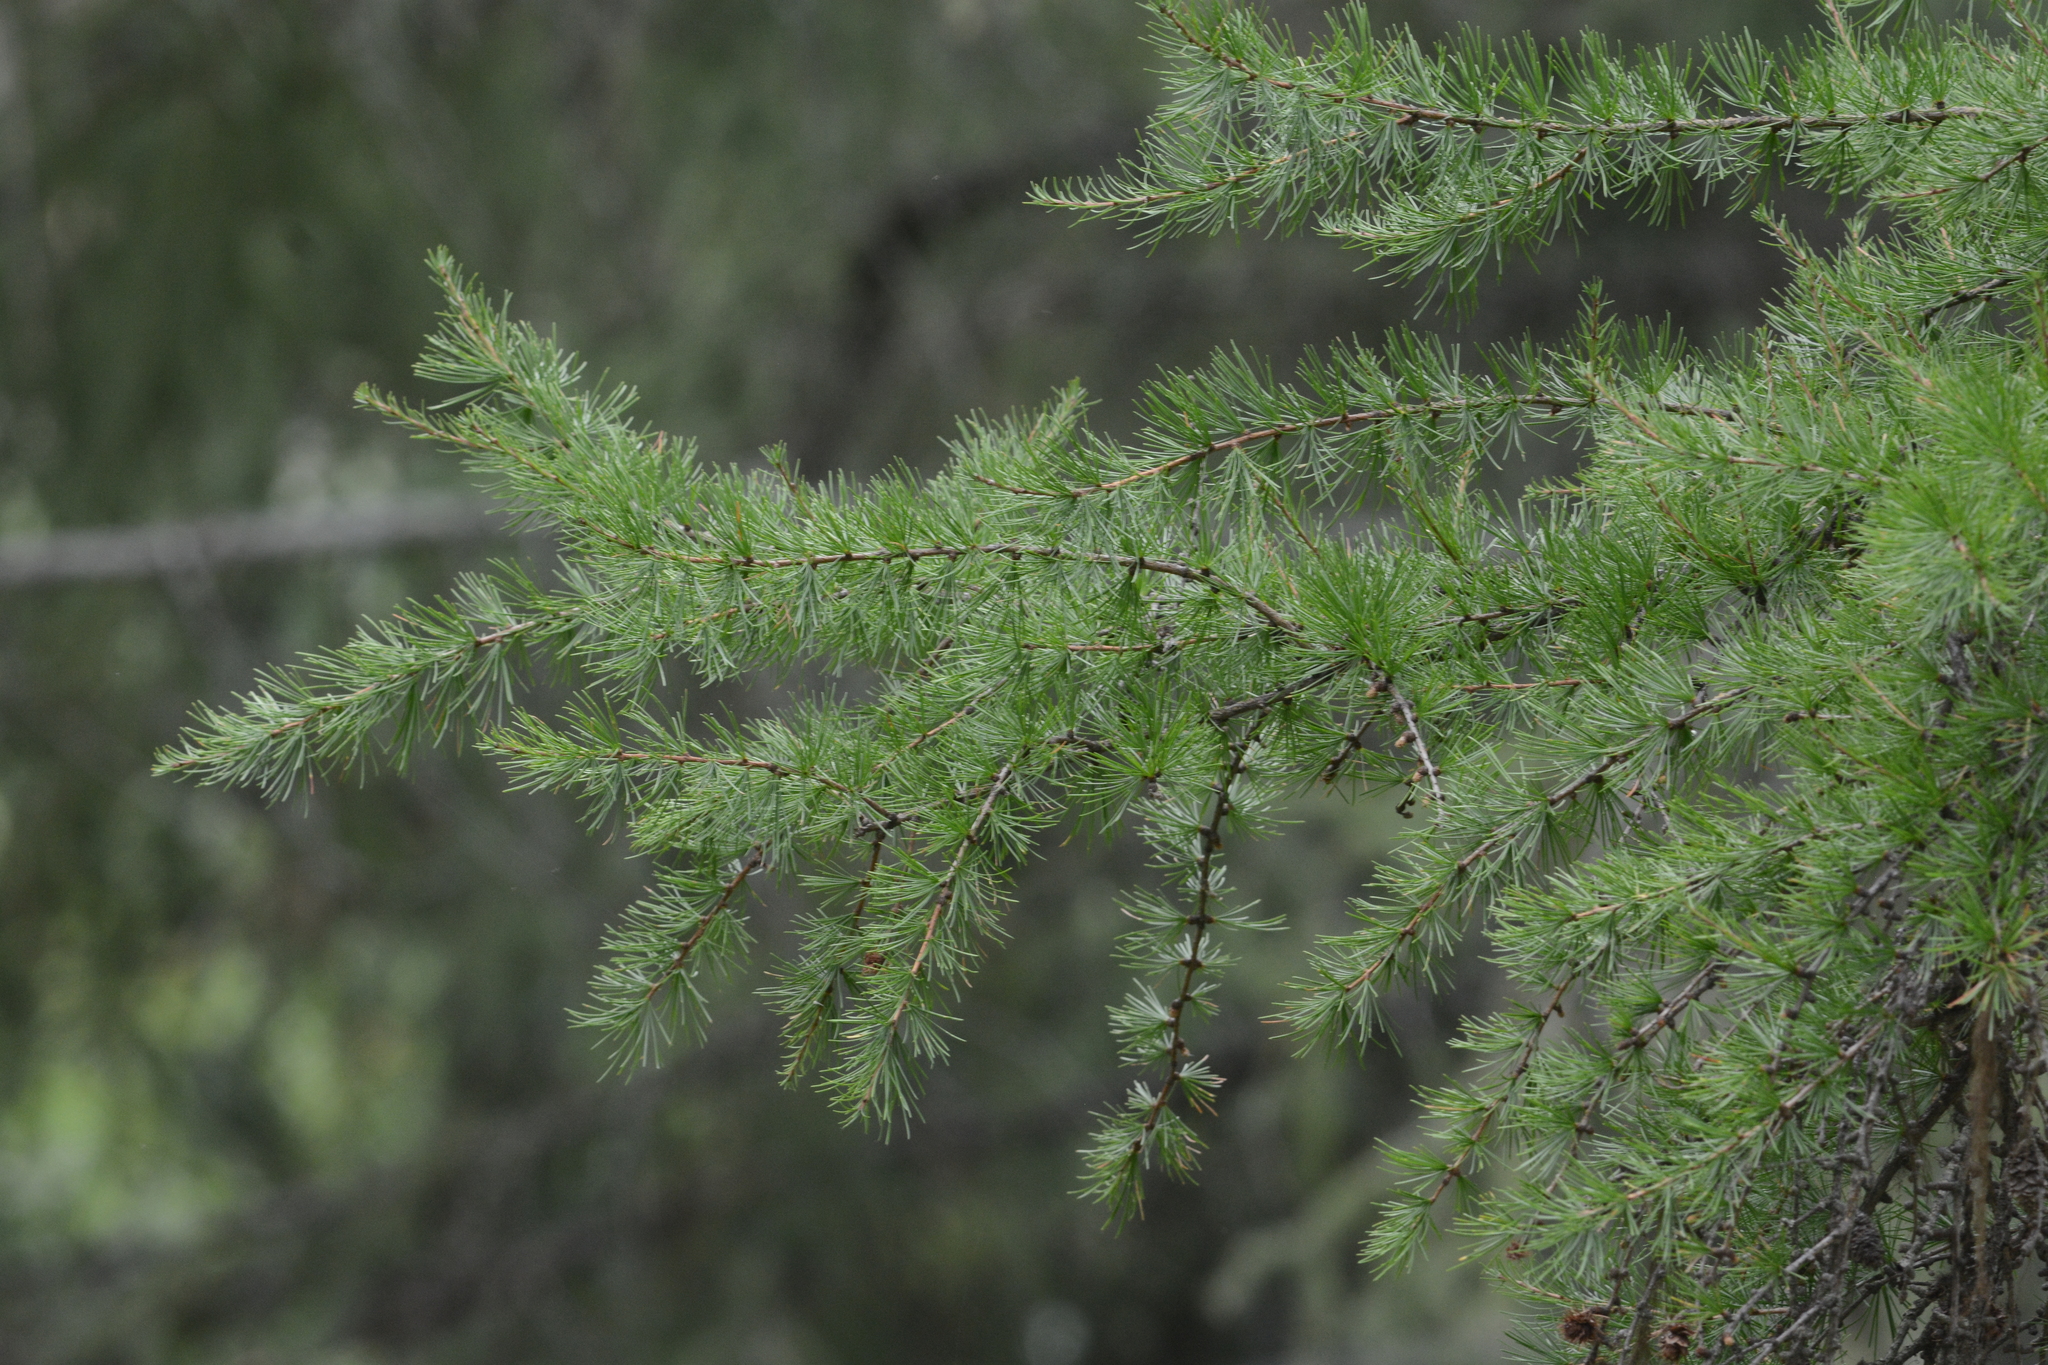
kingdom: Plantae
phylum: Tracheophyta
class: Pinopsida
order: Pinales
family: Pinaceae
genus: Larix
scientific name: Larix occidentalis
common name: Western larch
